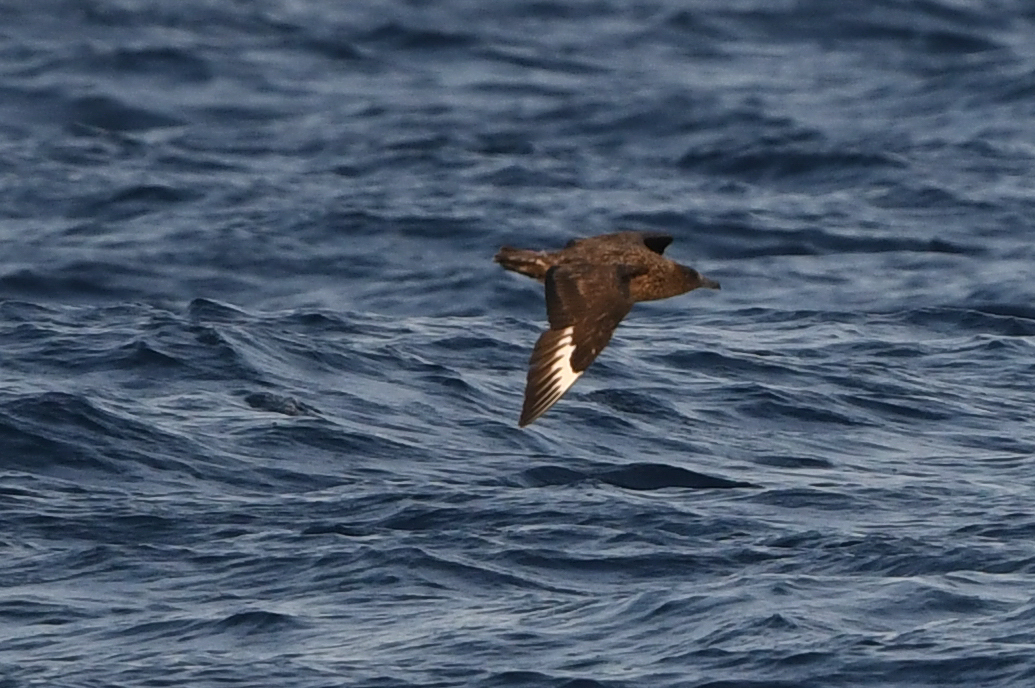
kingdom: Animalia
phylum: Chordata
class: Aves
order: Charadriiformes
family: Stercorariidae
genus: Stercorarius
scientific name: Stercorarius skua
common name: Great skua
